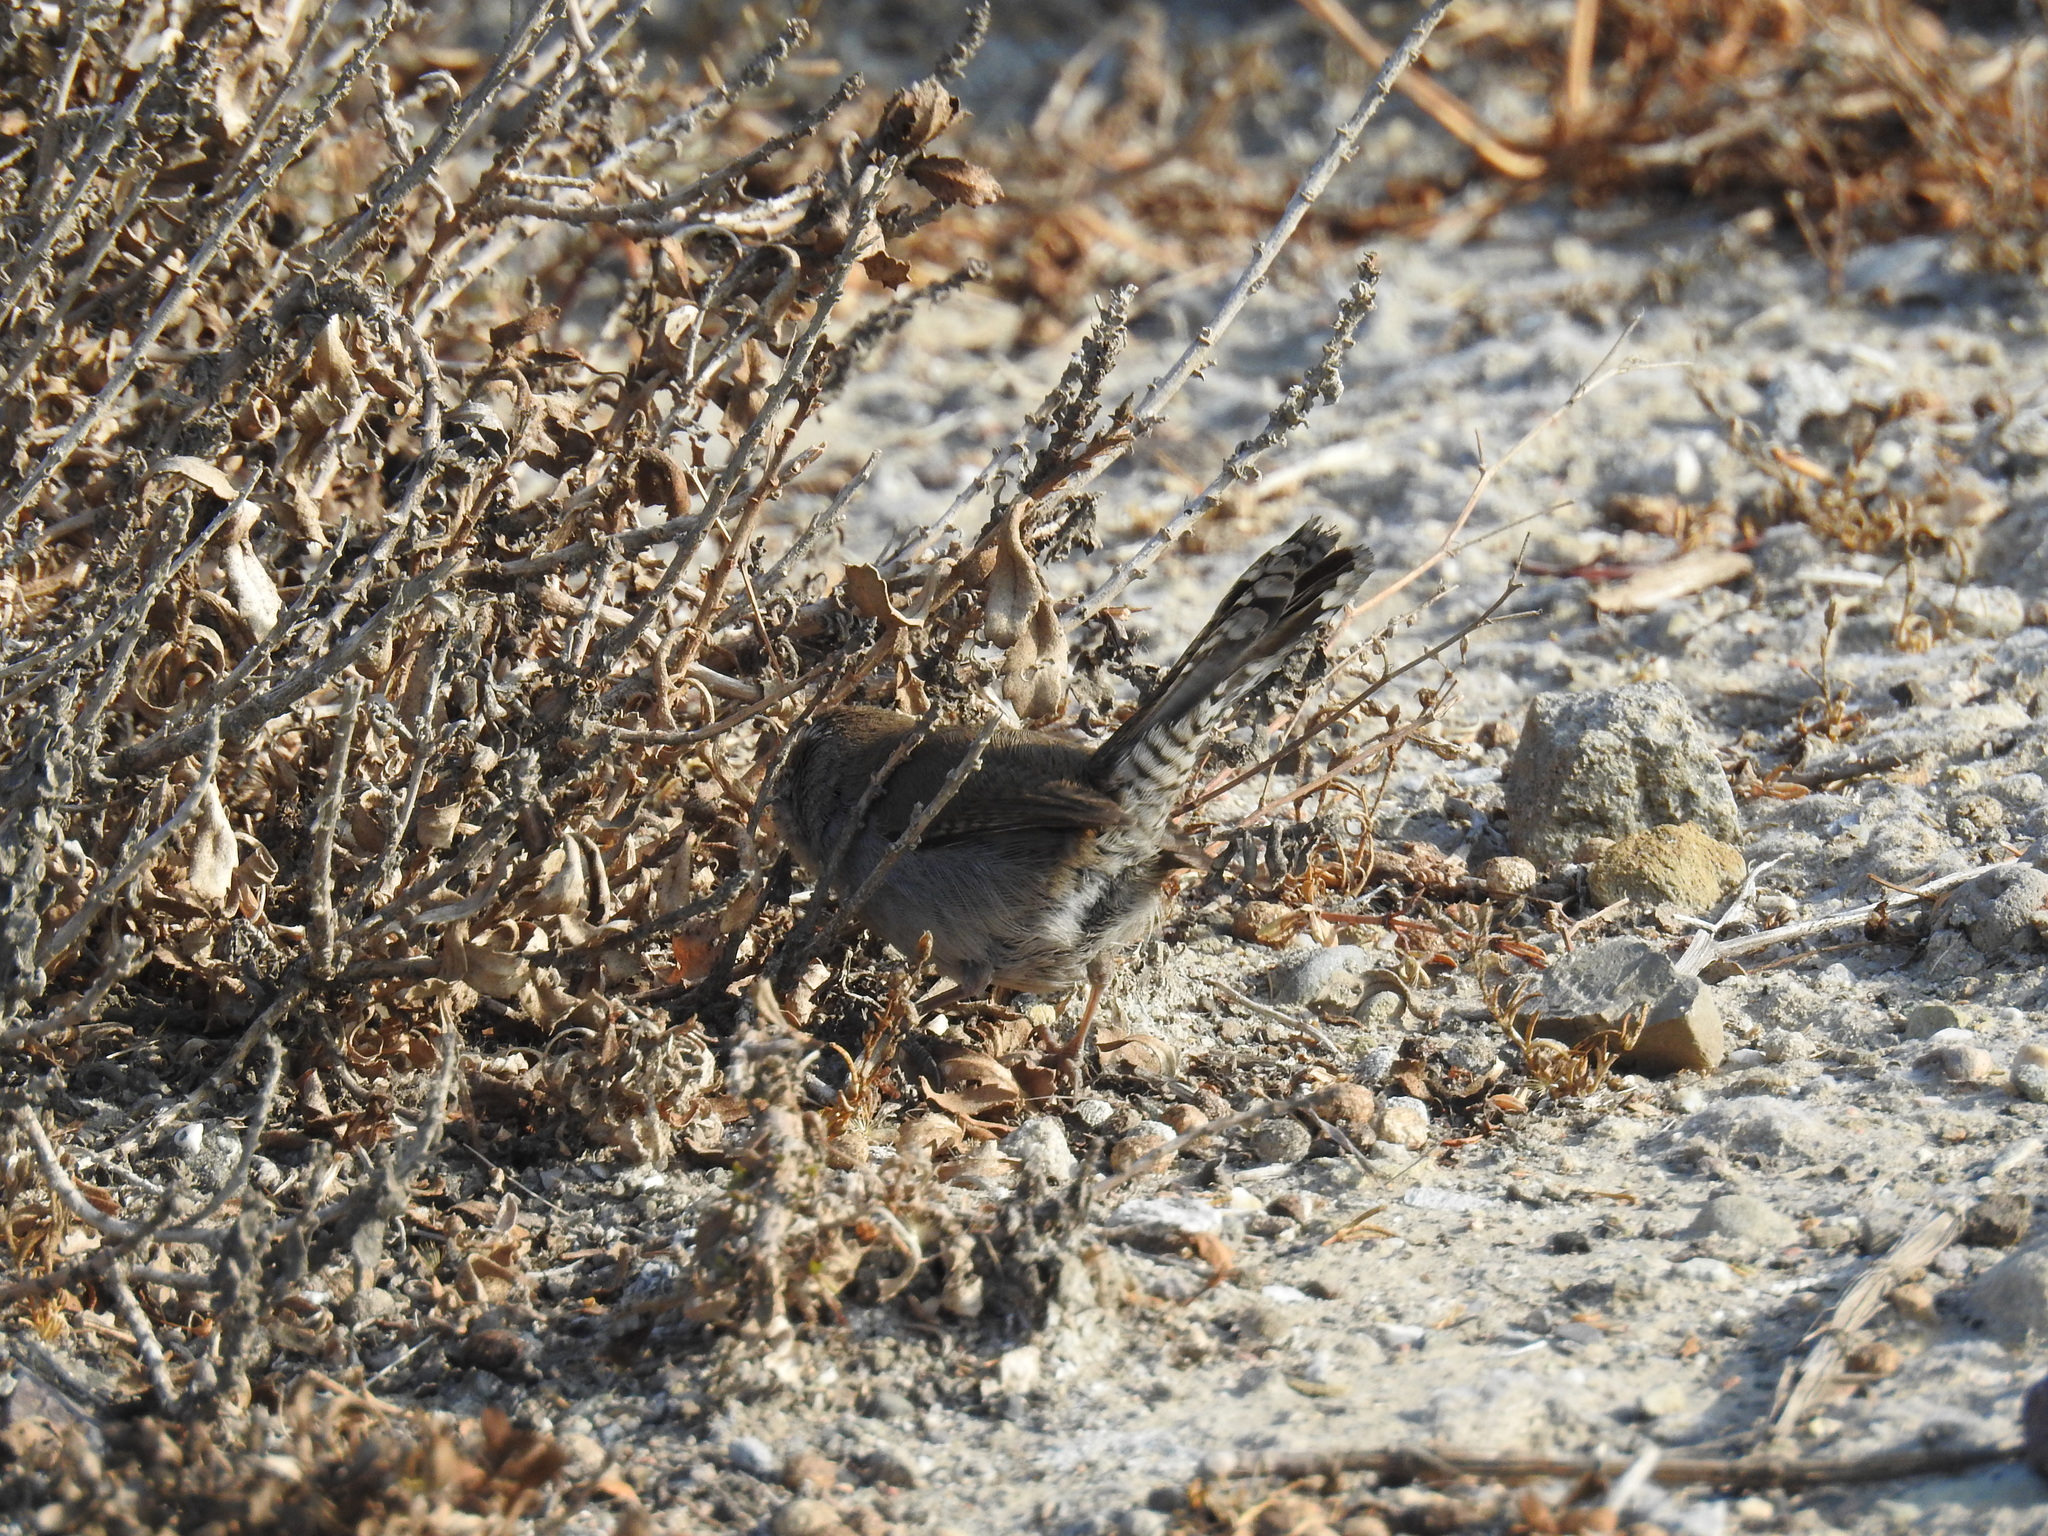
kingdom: Animalia
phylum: Chordata
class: Aves
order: Passeriformes
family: Troglodytidae
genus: Thryomanes
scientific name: Thryomanes bewickii
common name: Bewick's wren
